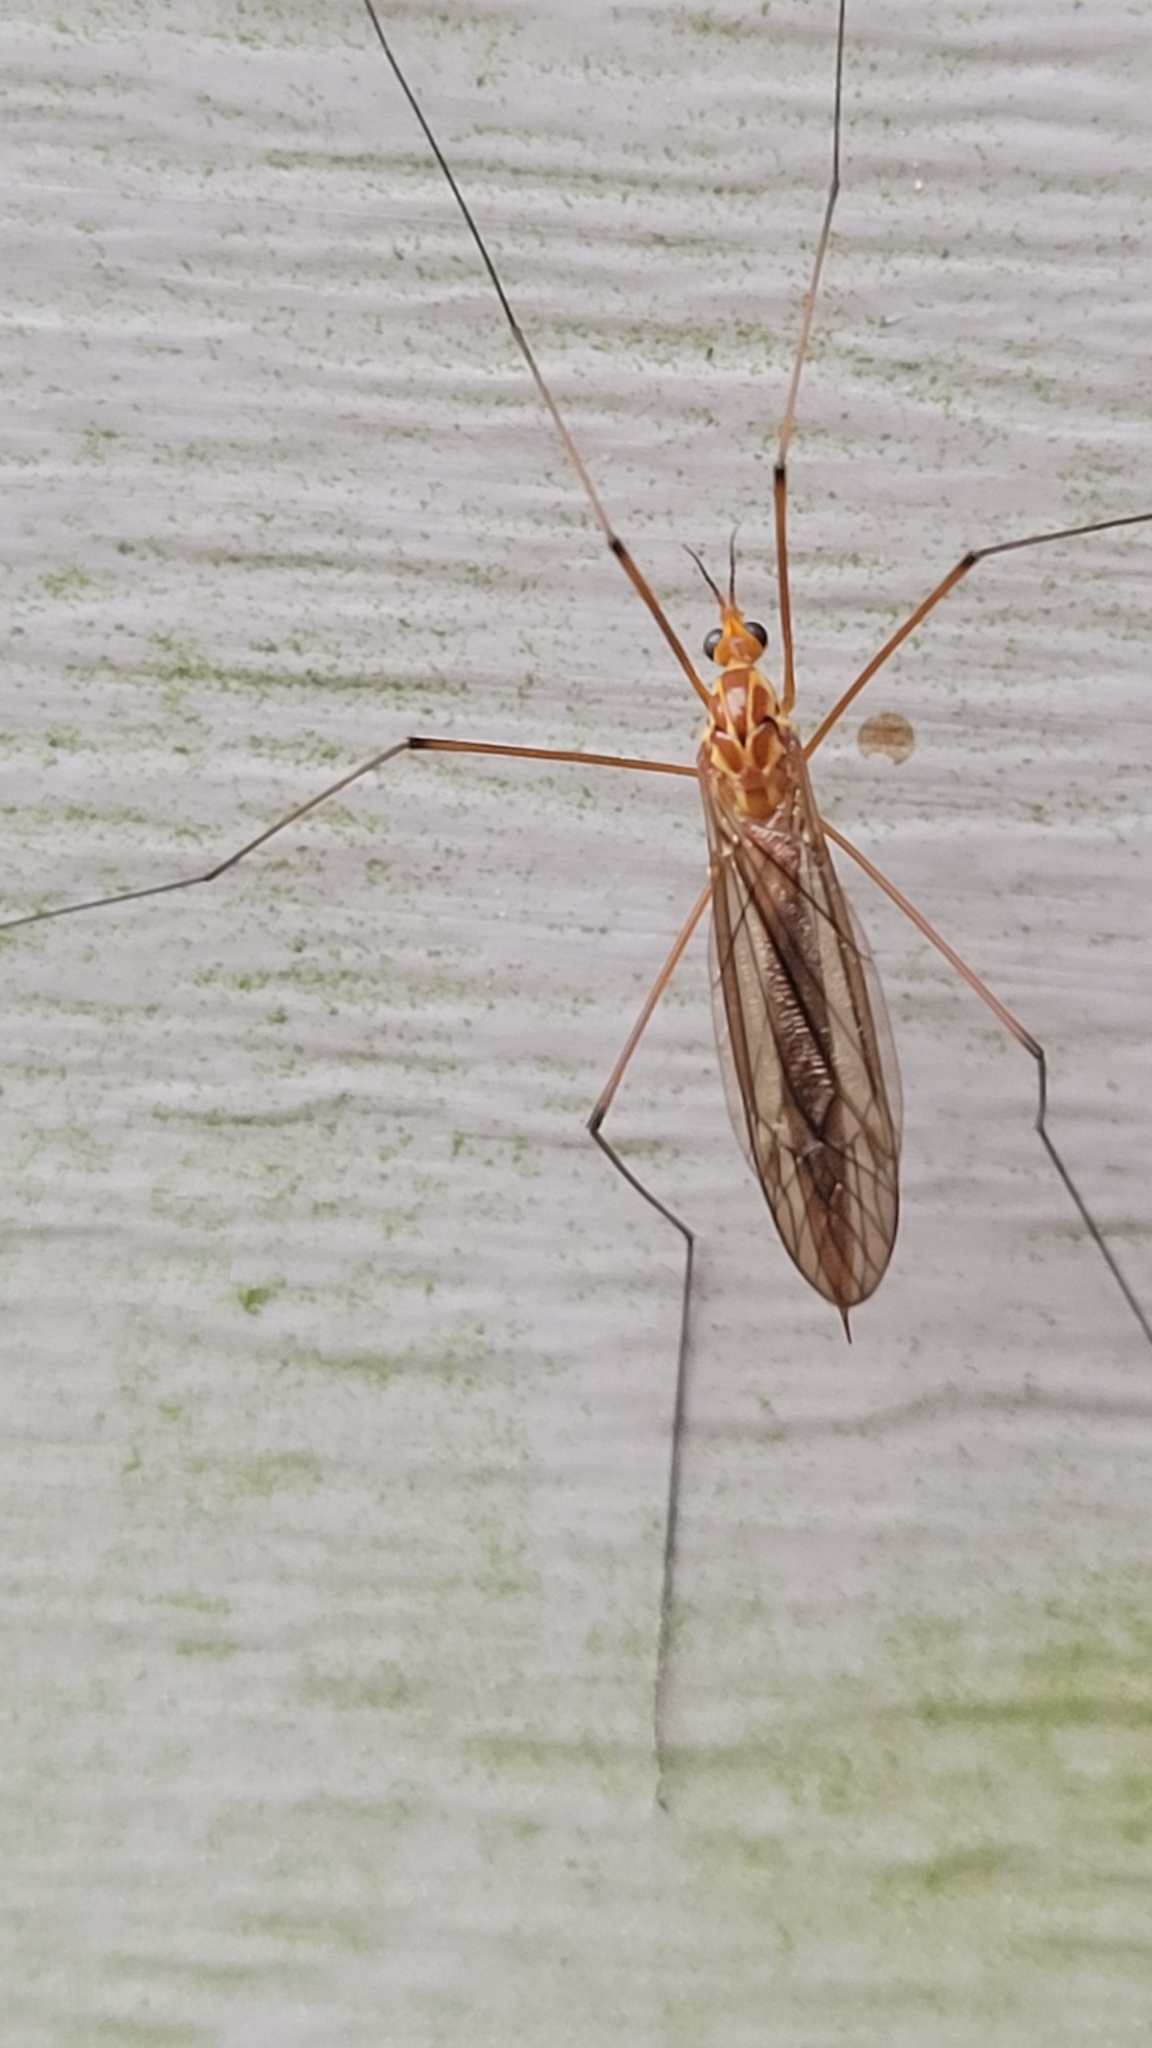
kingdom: Animalia
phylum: Arthropoda
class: Insecta
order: Diptera
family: Tipulidae
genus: Nephrotoma
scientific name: Nephrotoma ferruginea
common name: Ferruginous tiger crane fly
